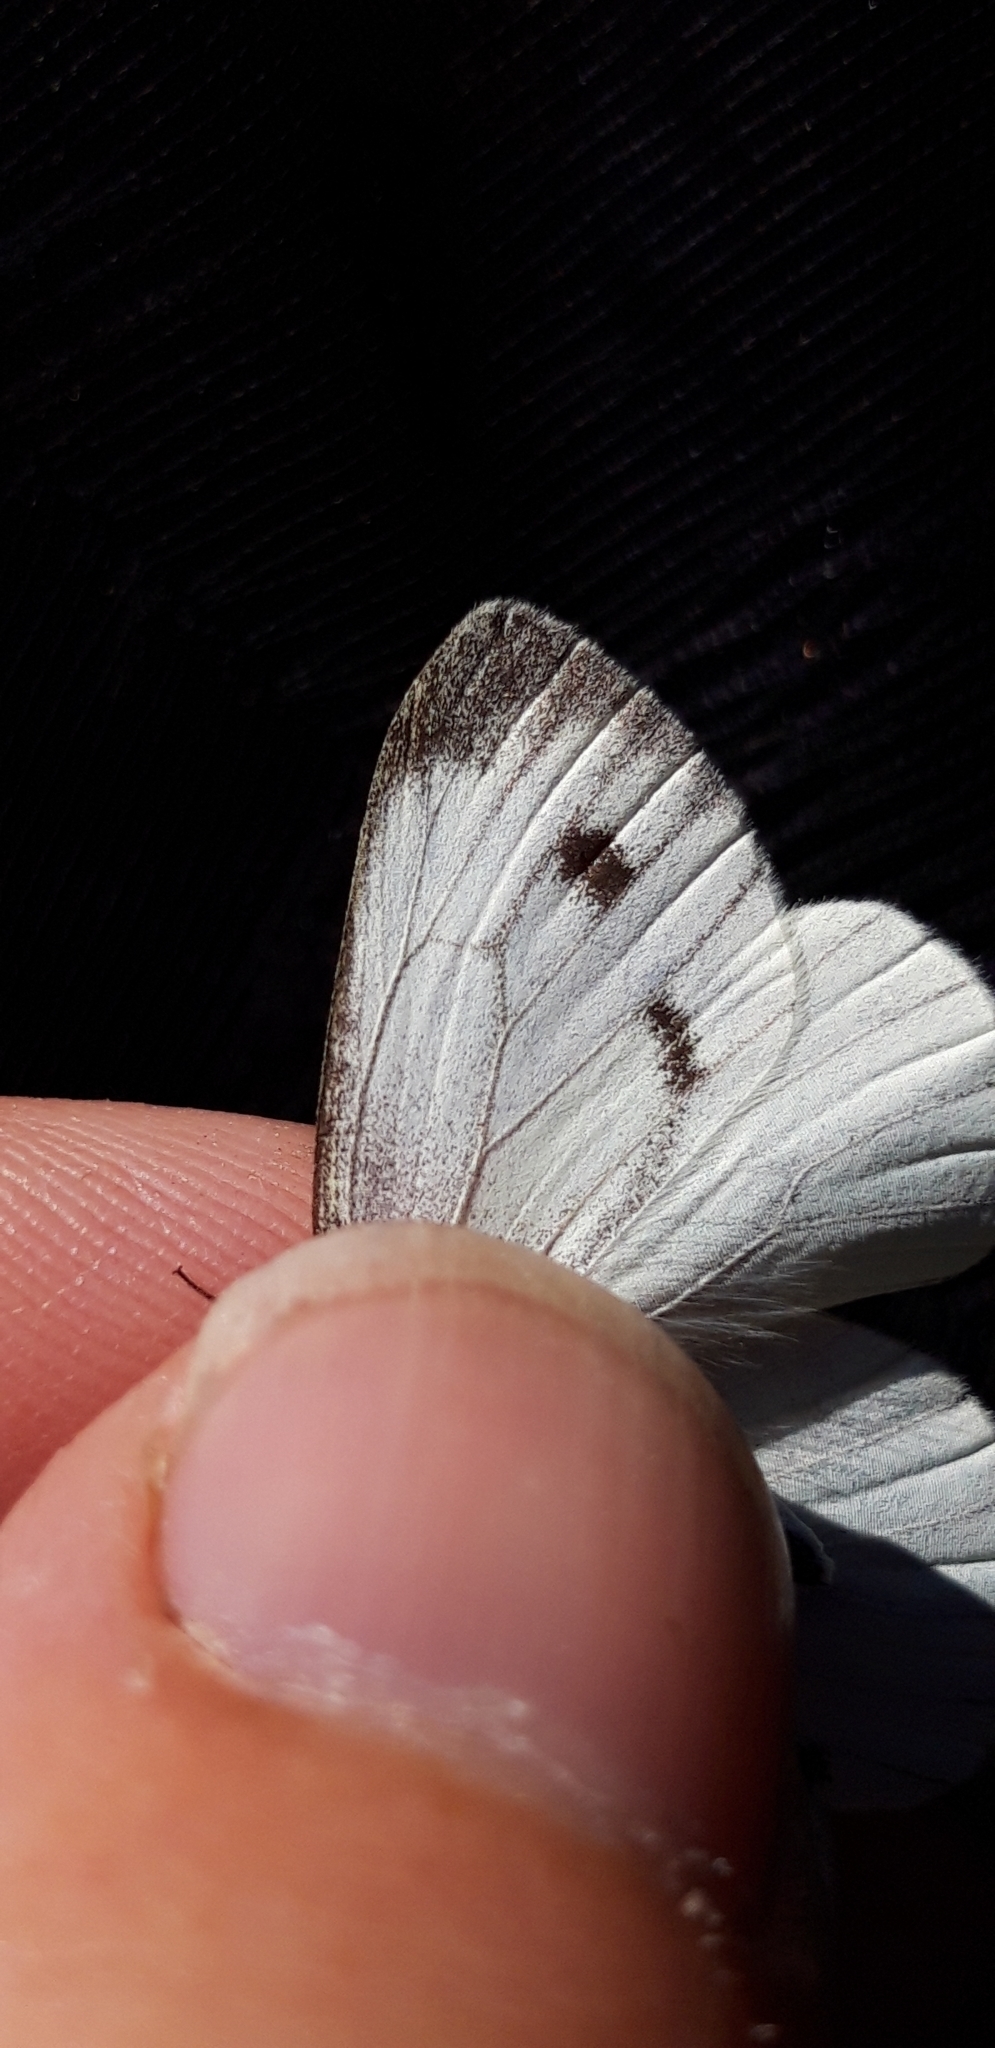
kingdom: Animalia
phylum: Arthropoda
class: Insecta
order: Lepidoptera
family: Pieridae
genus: Pieris
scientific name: Pieris napi
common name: Green-veined white
